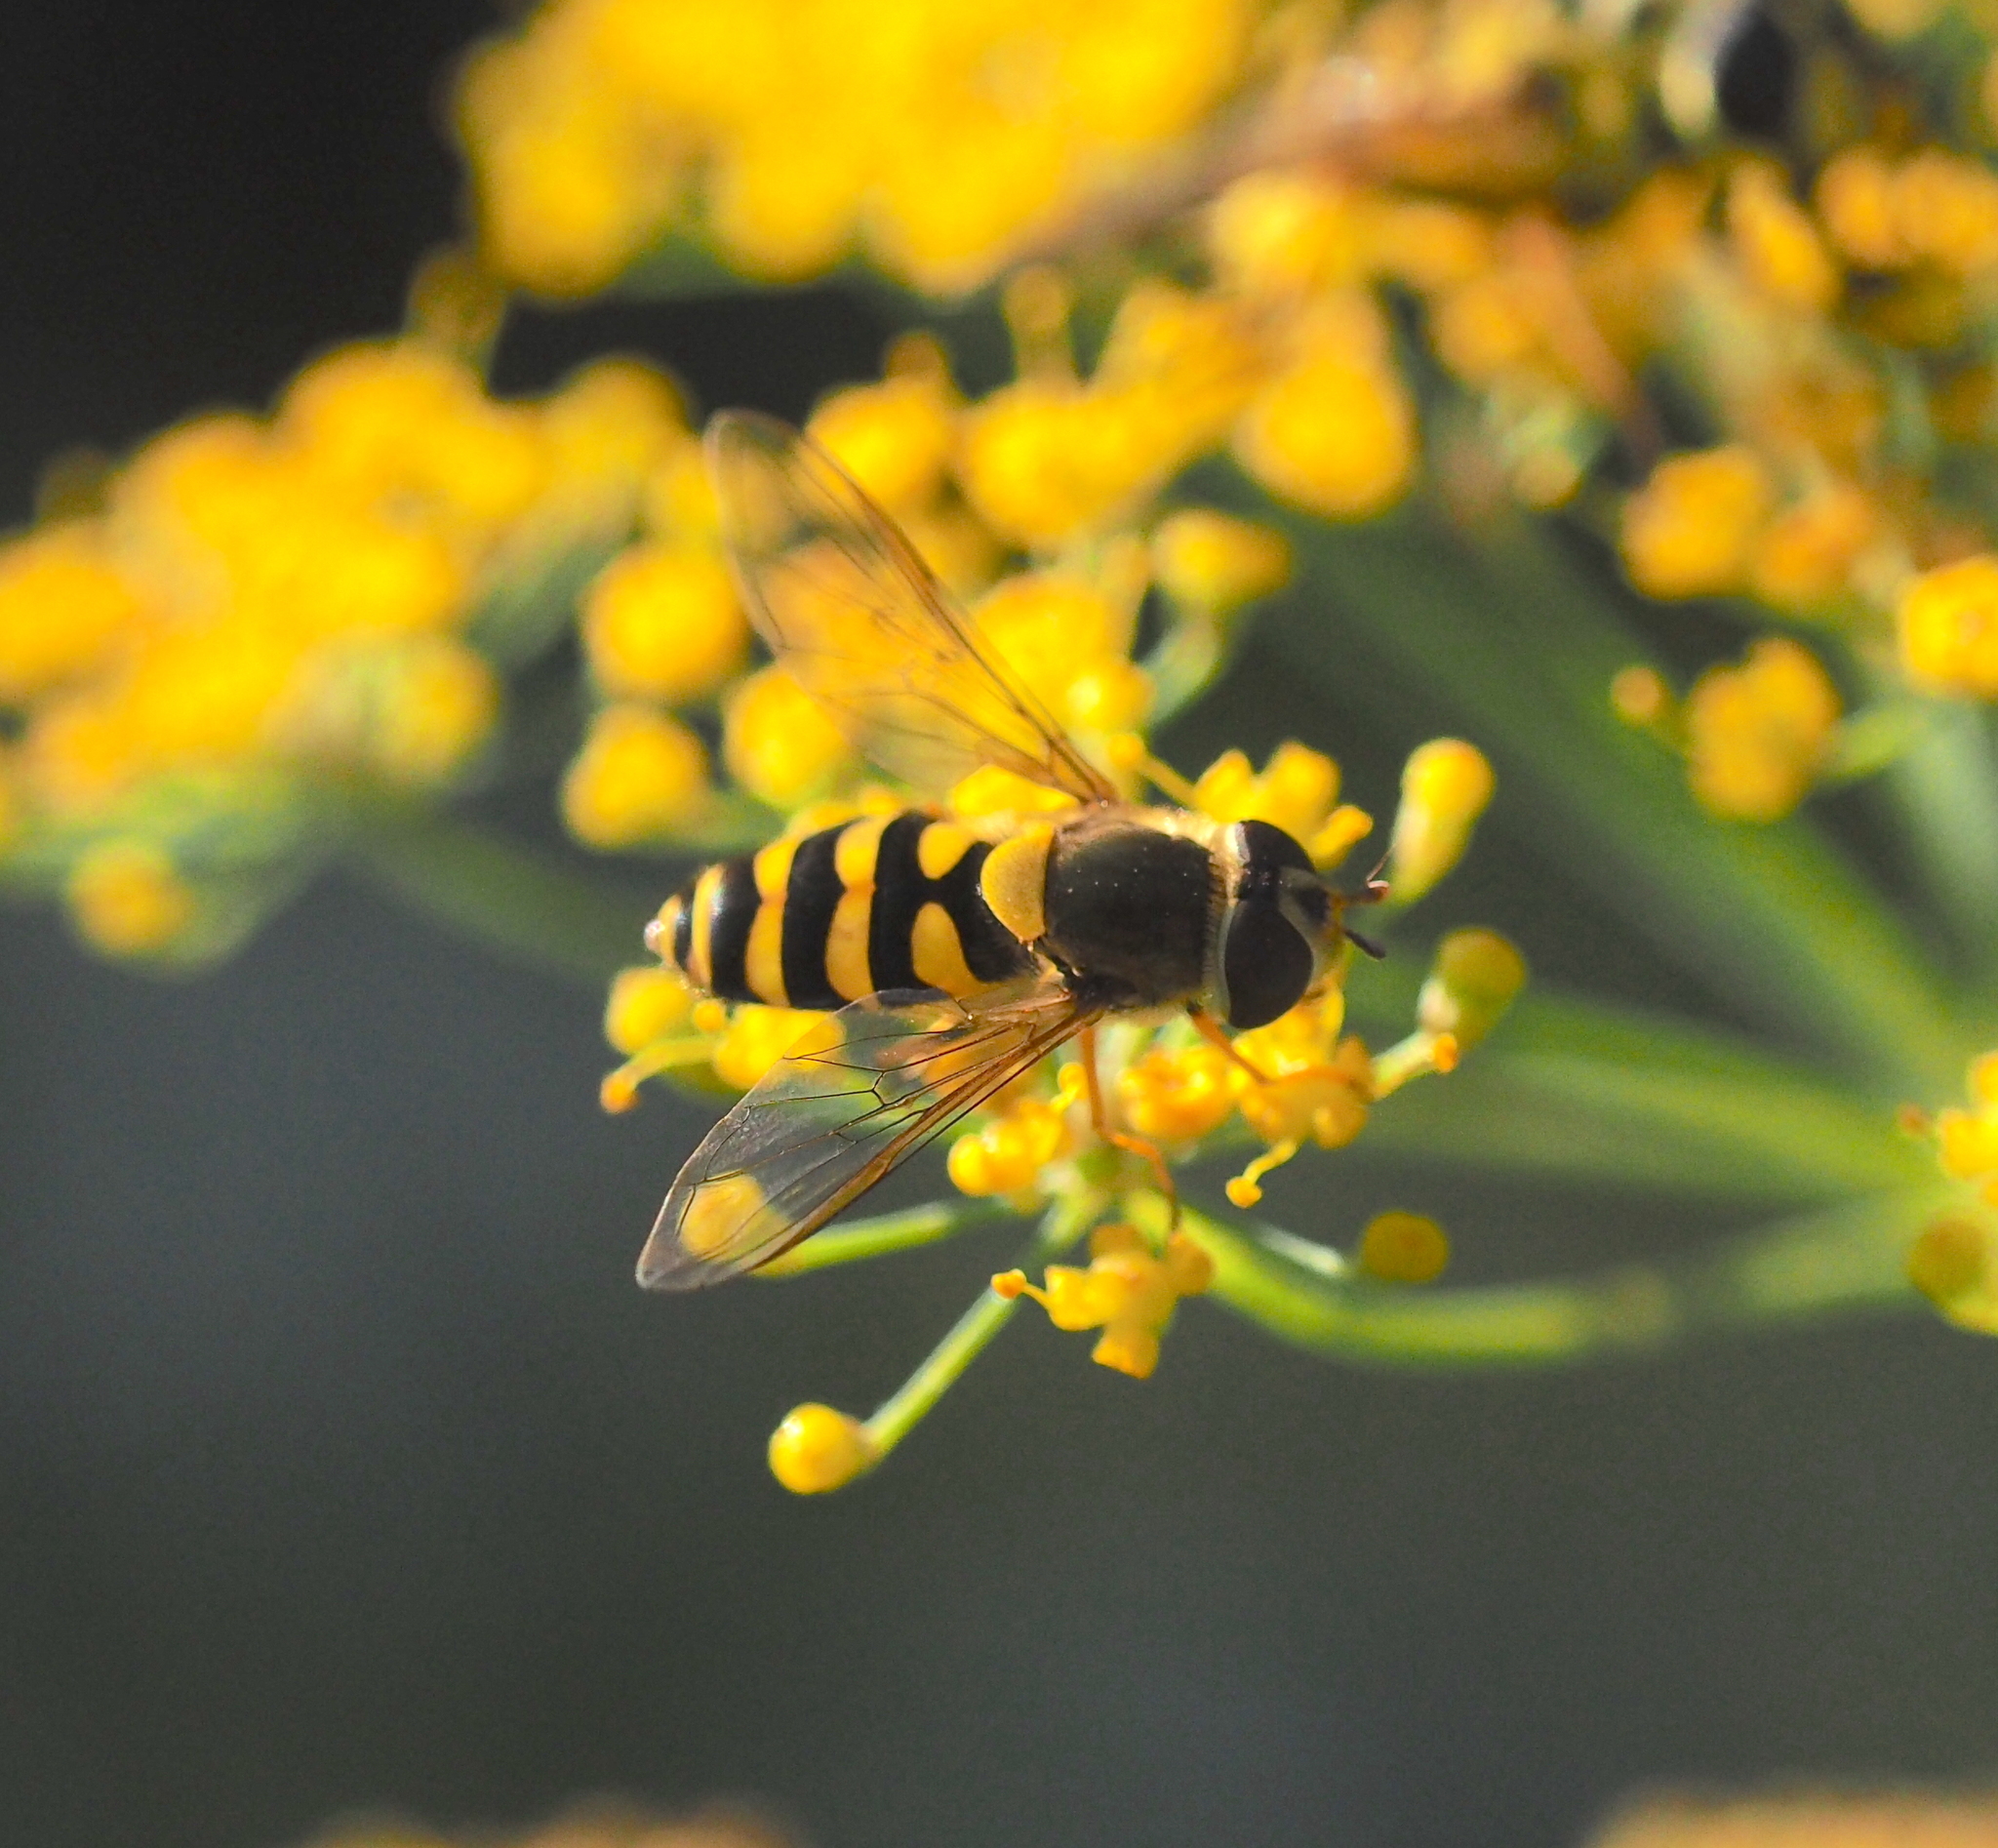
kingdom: Animalia
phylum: Arthropoda
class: Insecta
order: Diptera
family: Syrphidae
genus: Syrphus
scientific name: Syrphus
